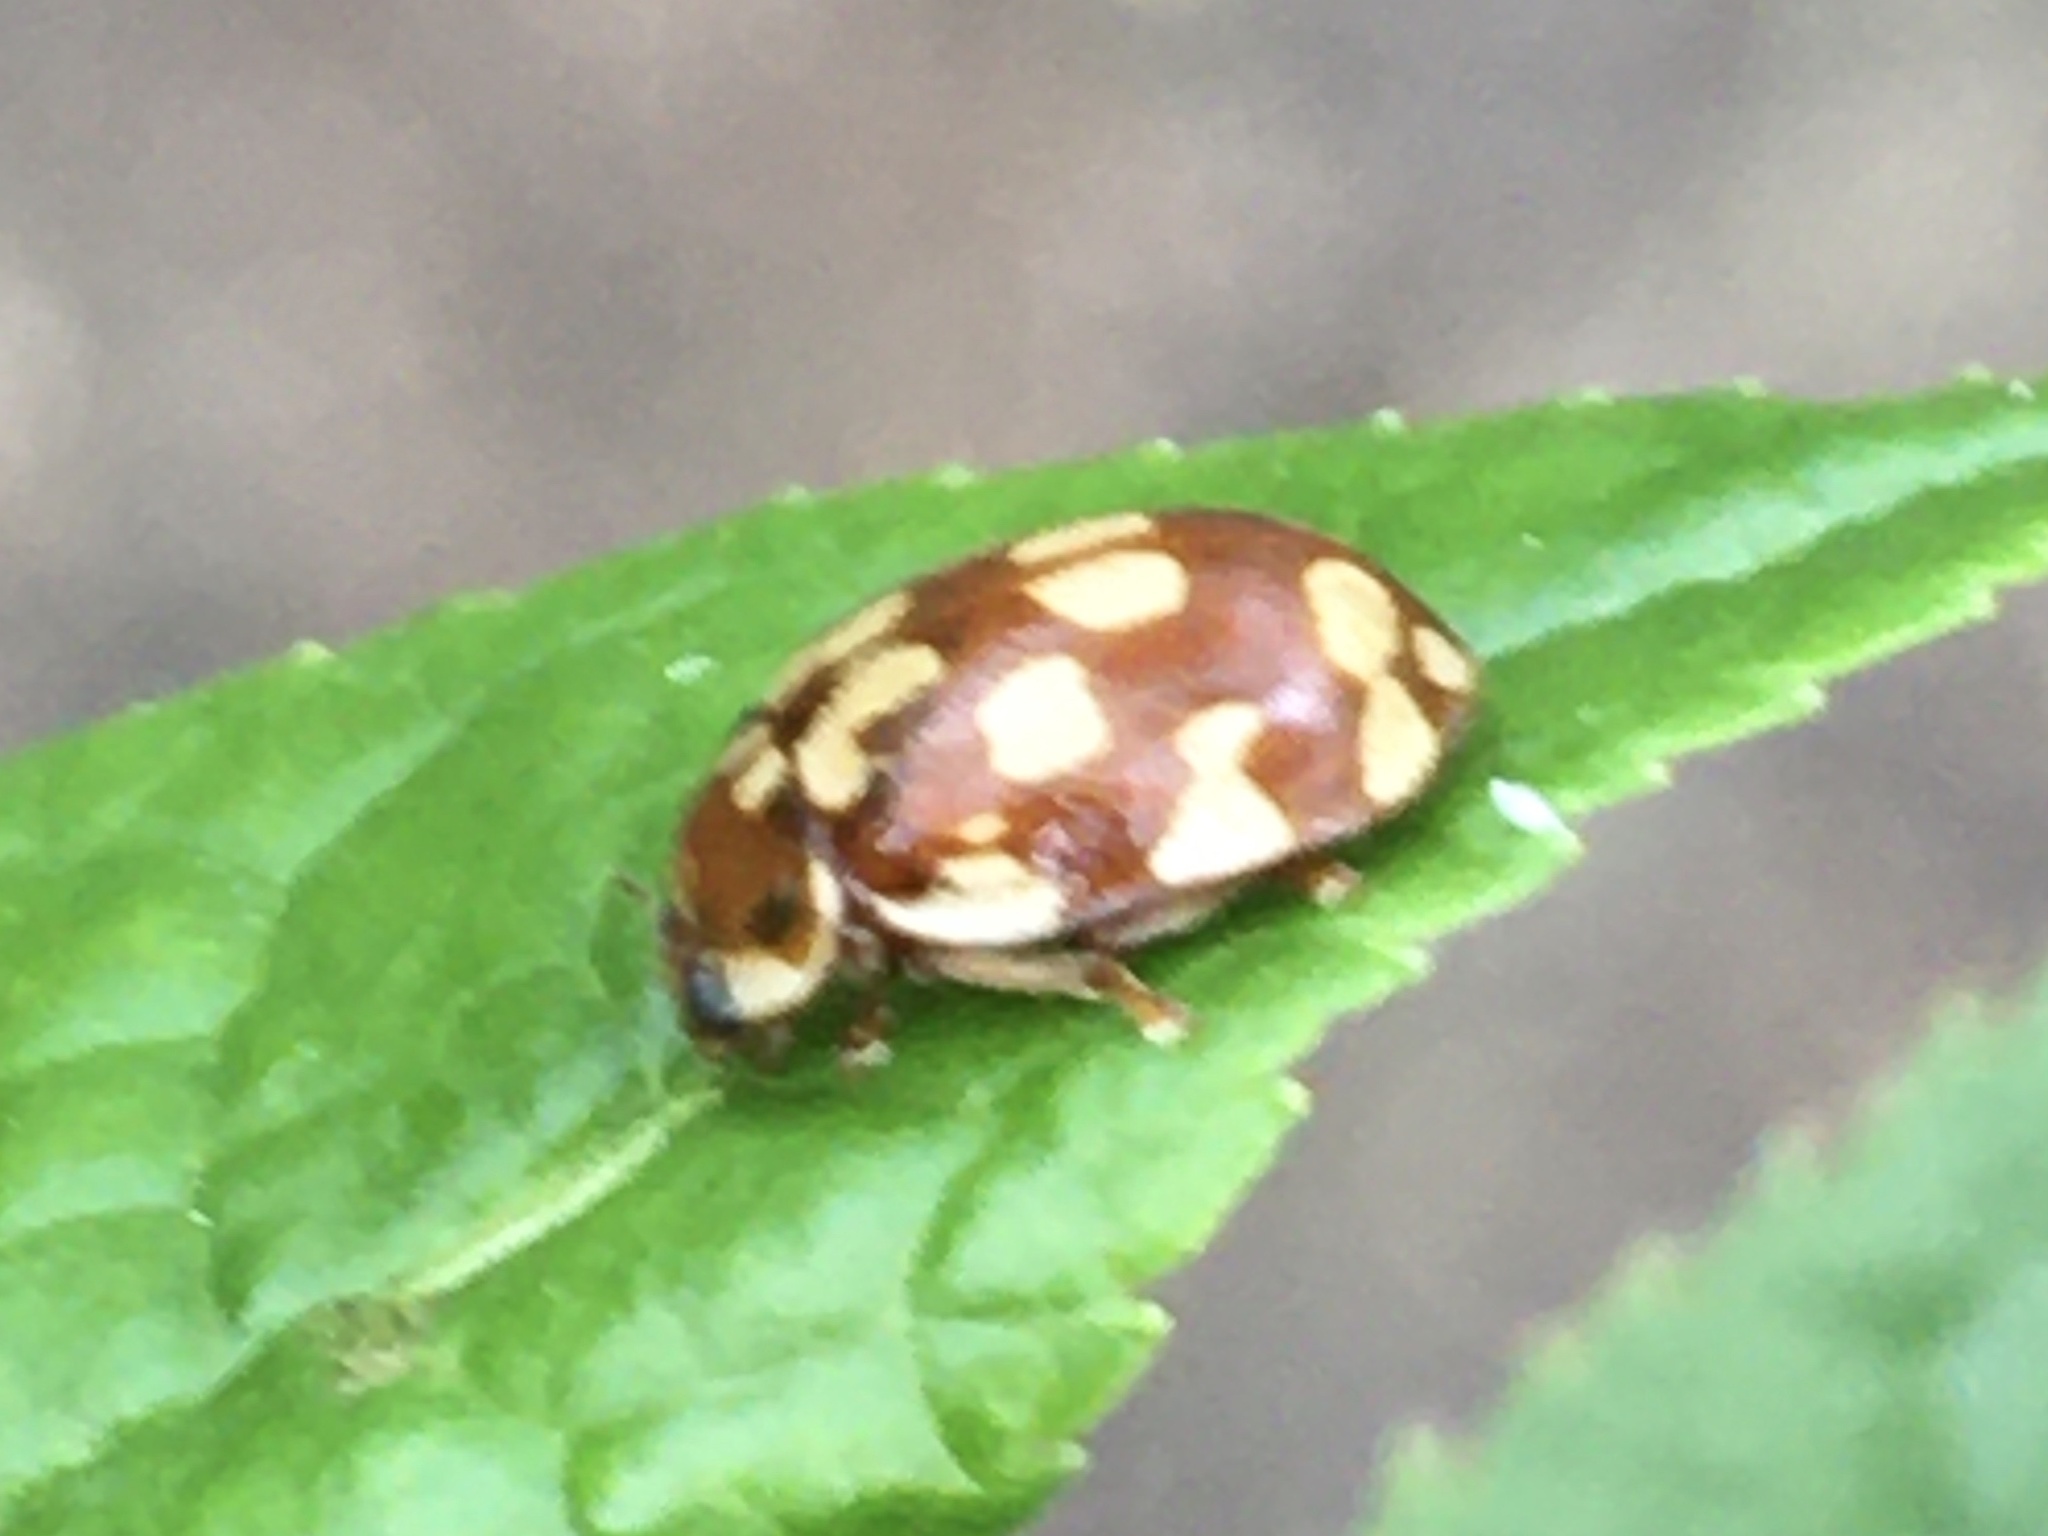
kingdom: Animalia
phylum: Arthropoda
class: Insecta
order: Coleoptera
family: Coccinellidae
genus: Myrrha
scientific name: Myrrha octodecimguttata
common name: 18-spot ladybird
